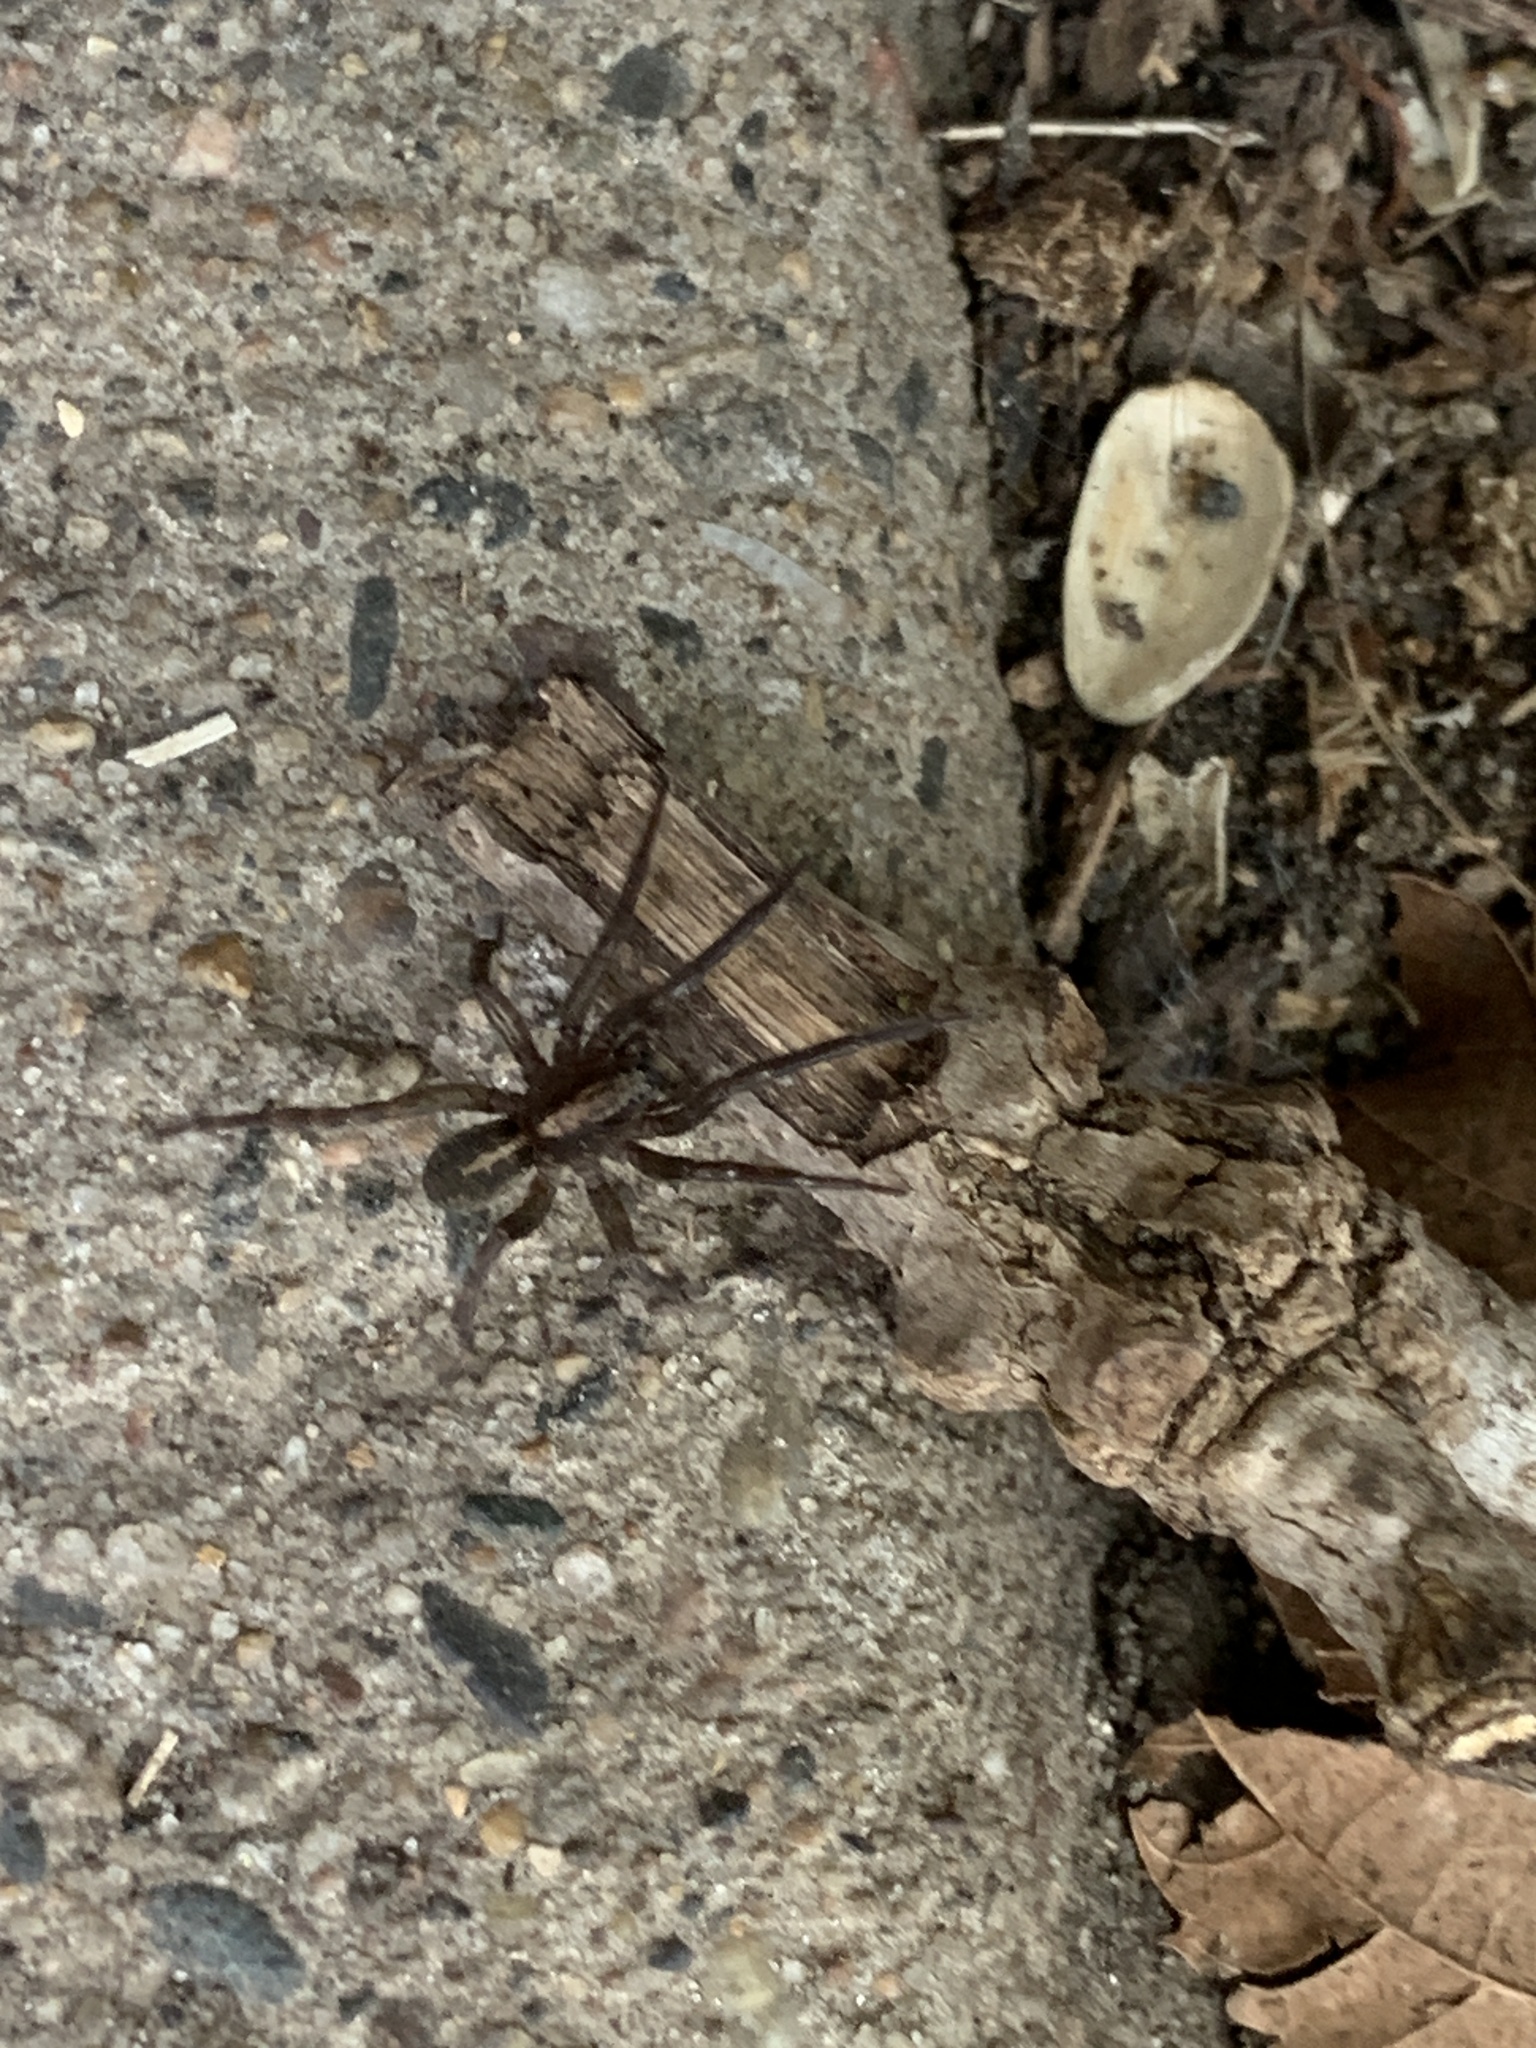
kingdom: Animalia
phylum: Arthropoda
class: Arachnida
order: Araneae
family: Lycosidae
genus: Trochosa
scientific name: Trochosa terricola
